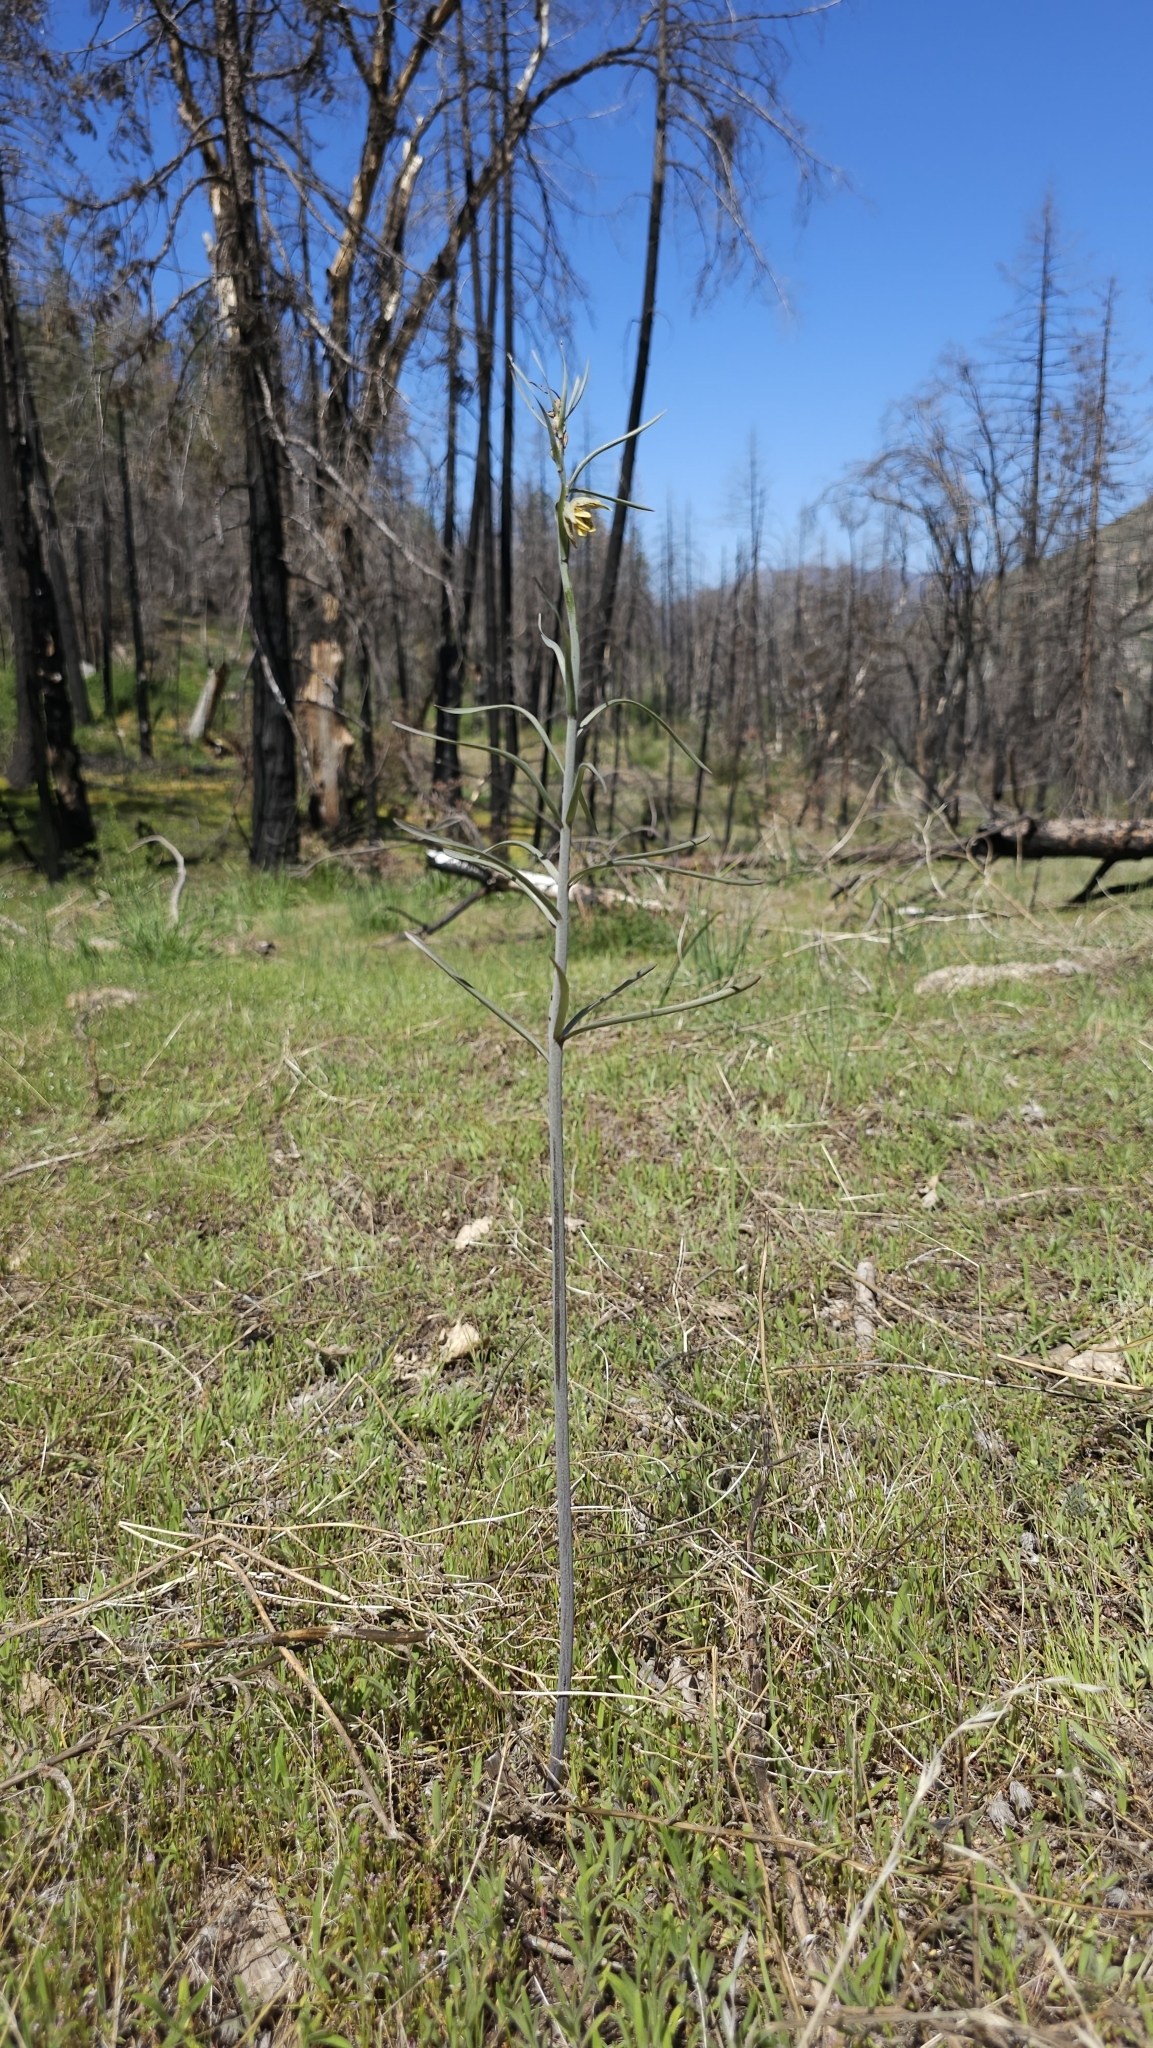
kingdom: Plantae
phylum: Tracheophyta
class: Liliopsida
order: Liliales
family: Liliaceae
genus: Fritillaria
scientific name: Fritillaria micrantha
